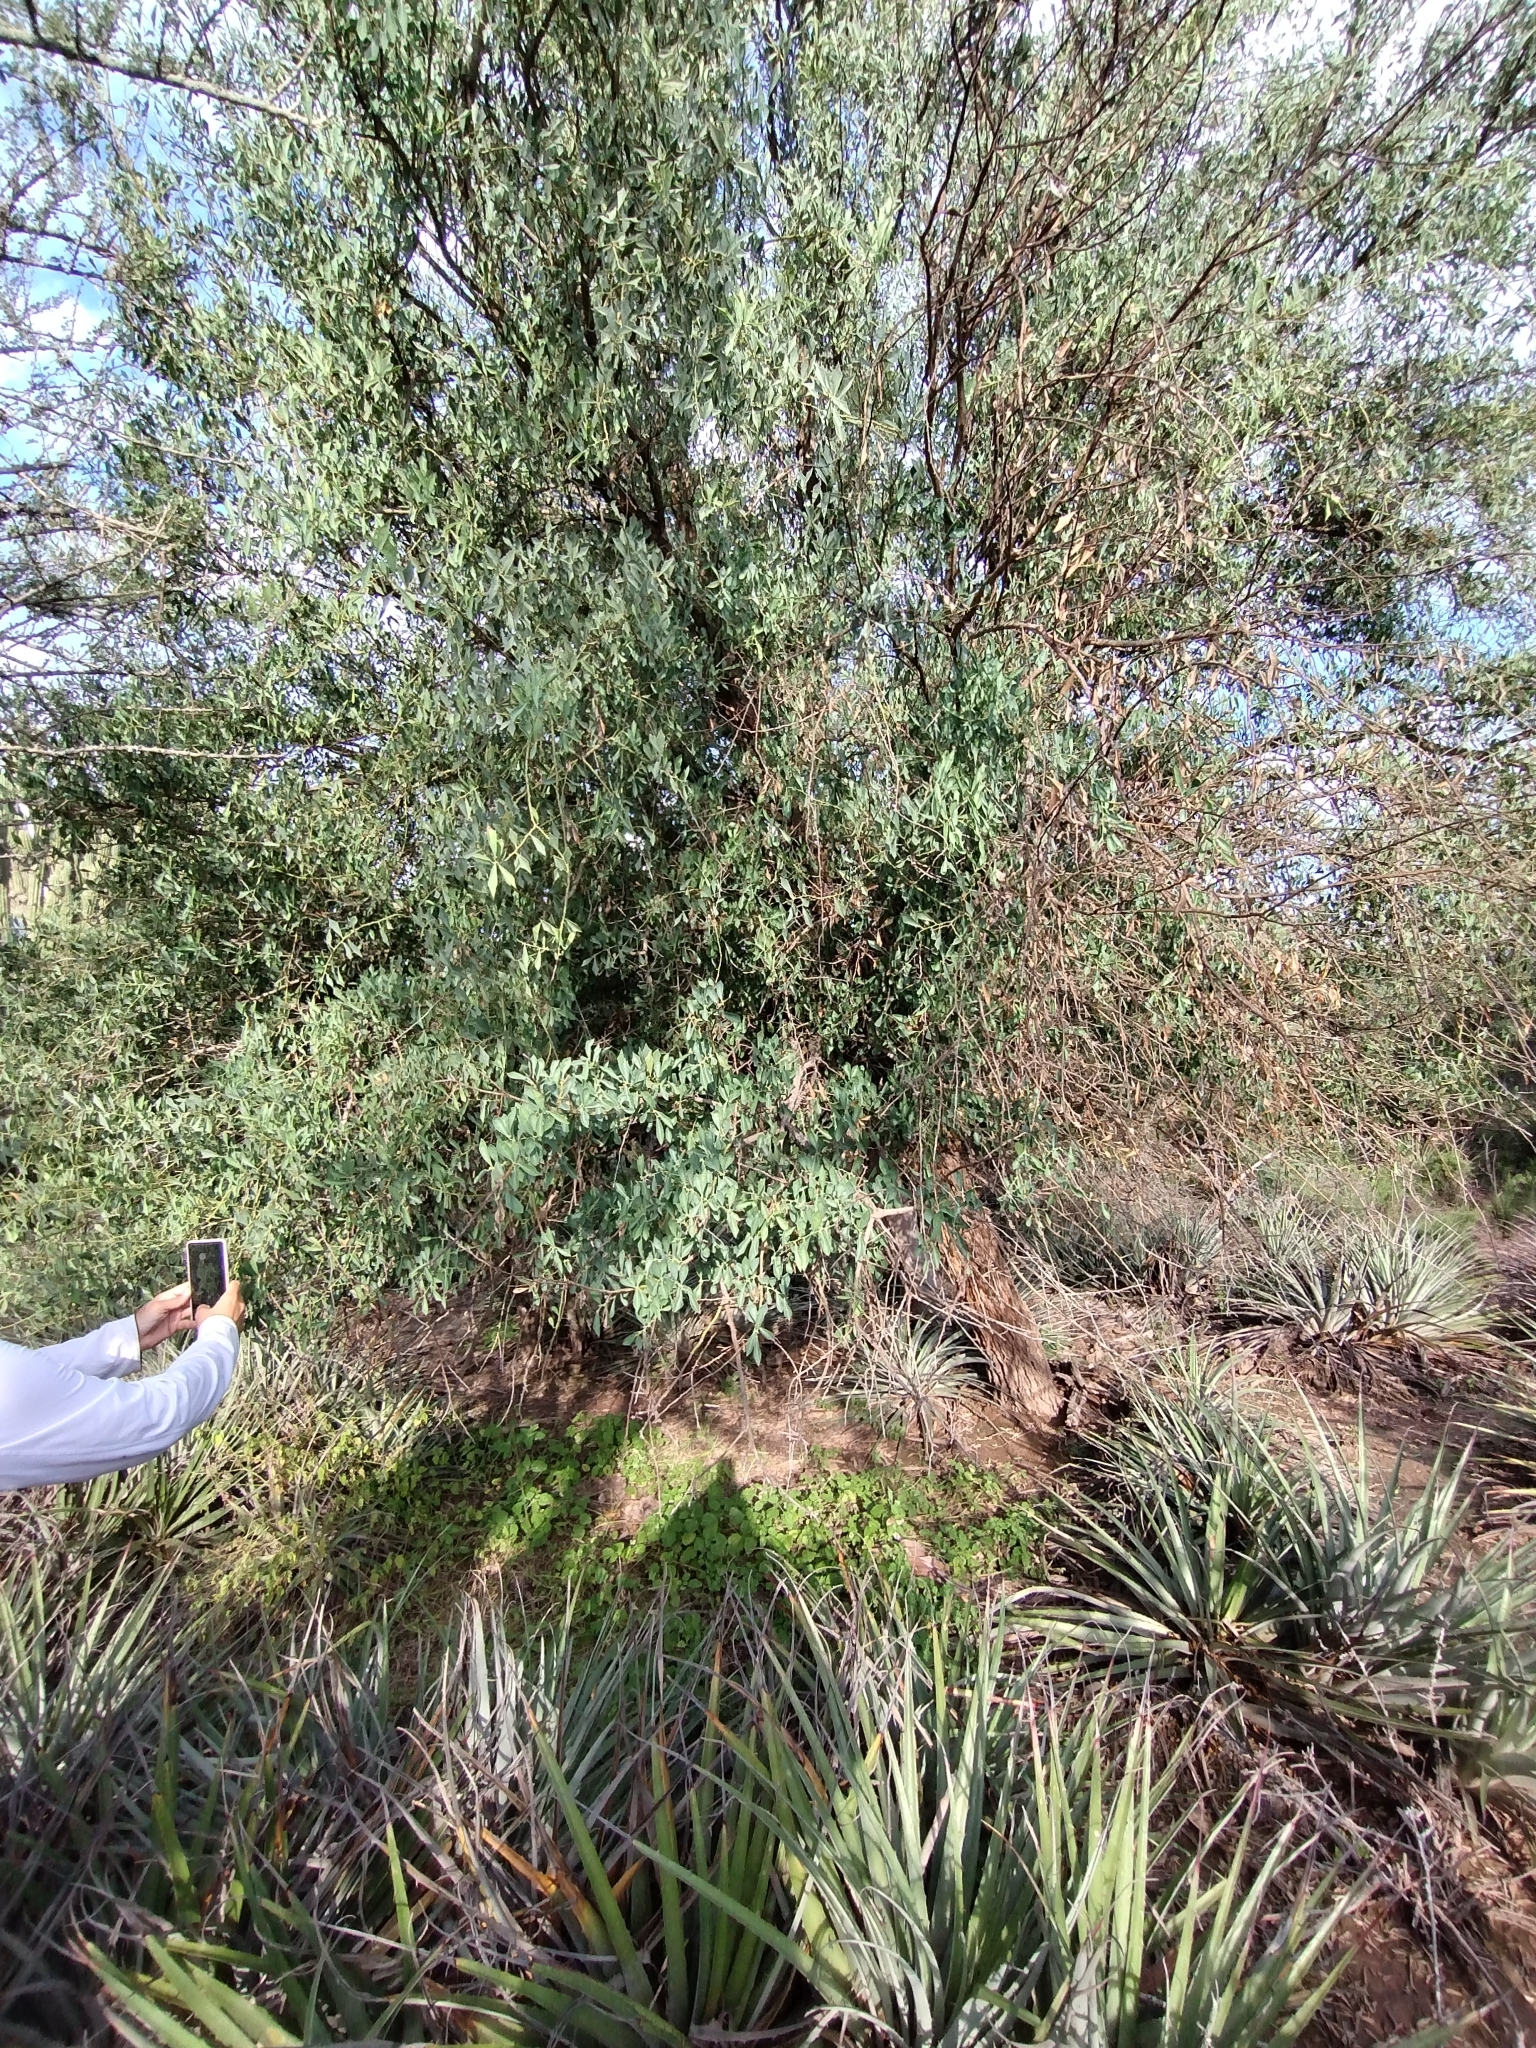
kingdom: Plantae
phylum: Tracheophyta
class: Magnoliopsida
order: Santalales
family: Cervantesiaceae
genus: Jodina
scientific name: Jodina rhombifolia
